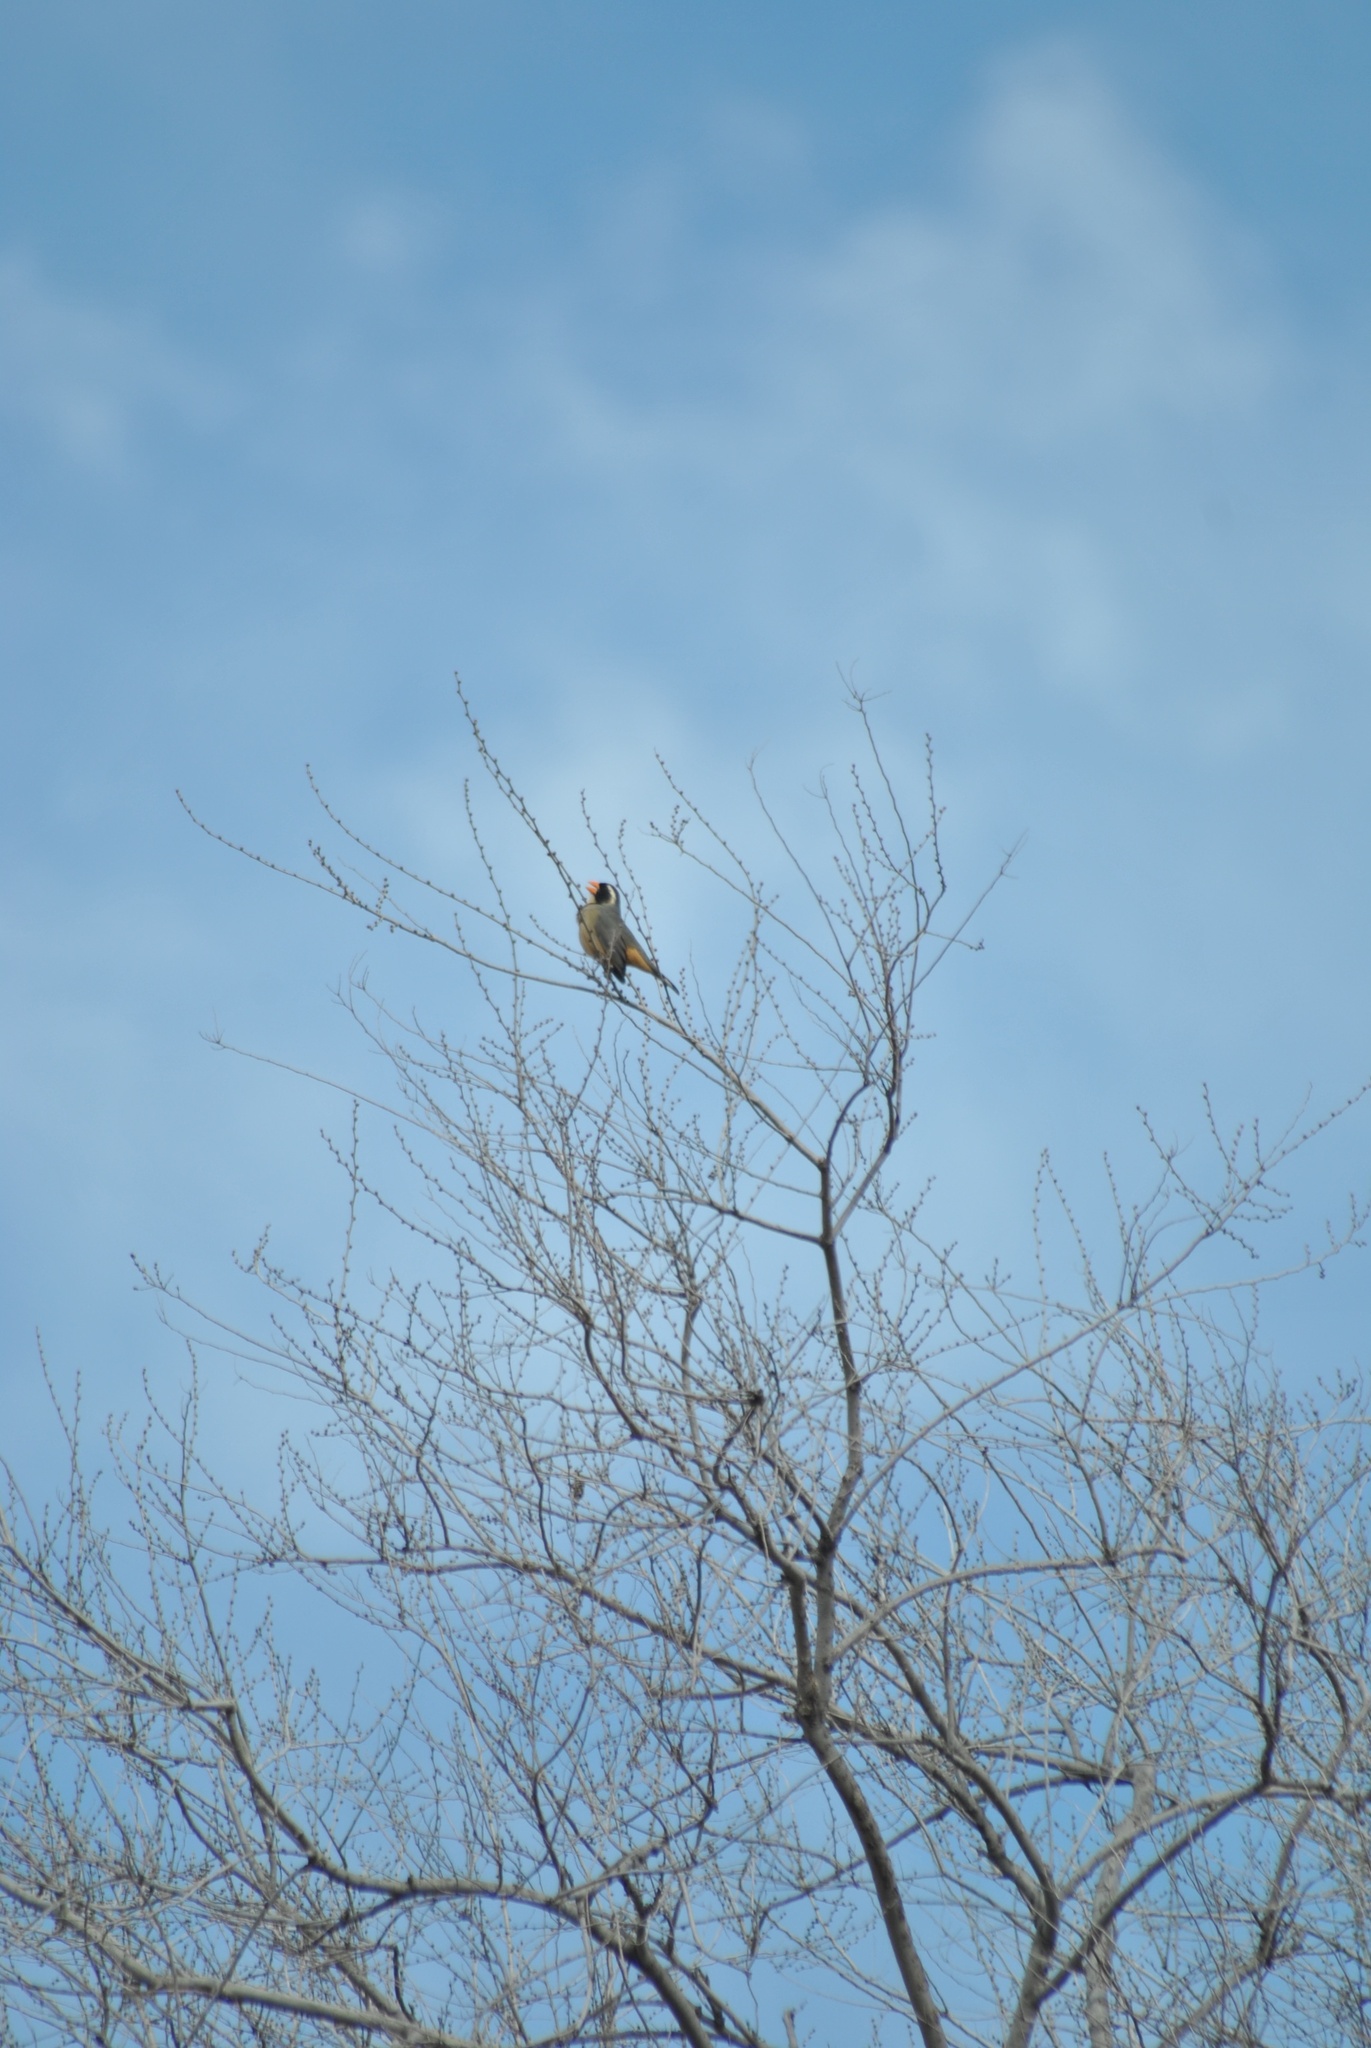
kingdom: Animalia
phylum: Chordata
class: Aves
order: Passeriformes
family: Thraupidae
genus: Saltator
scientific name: Saltator aurantiirostris
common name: Golden-billed saltator
